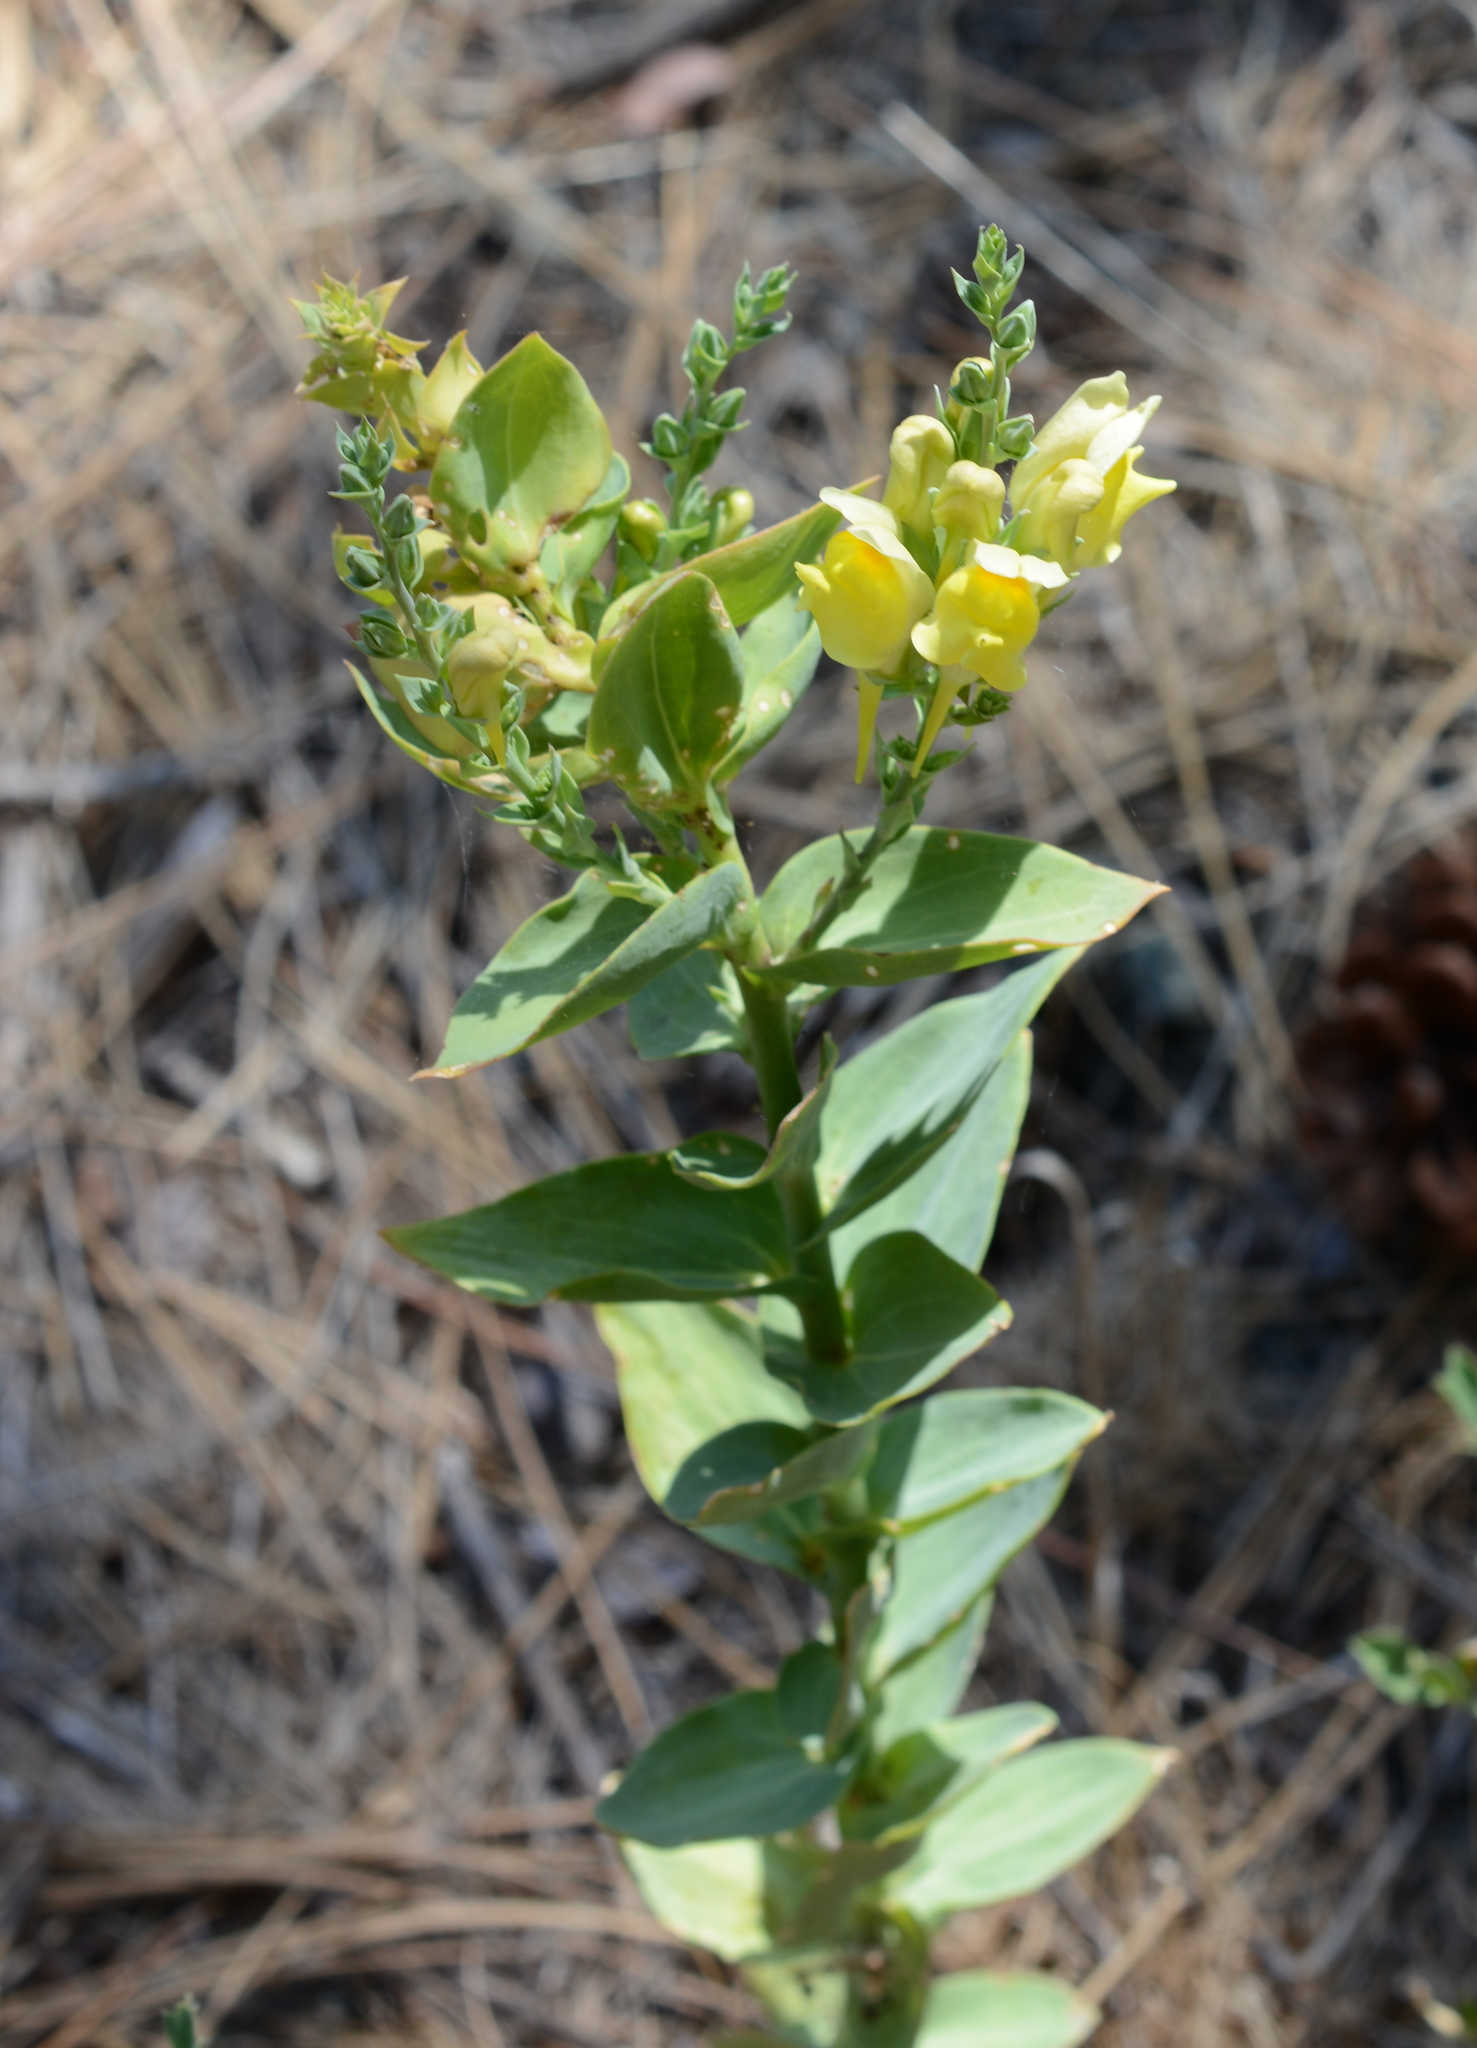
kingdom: Plantae
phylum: Tracheophyta
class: Magnoliopsida
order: Lamiales
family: Plantaginaceae
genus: Linaria
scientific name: Linaria dalmatica
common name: Dalmatian toadflax
